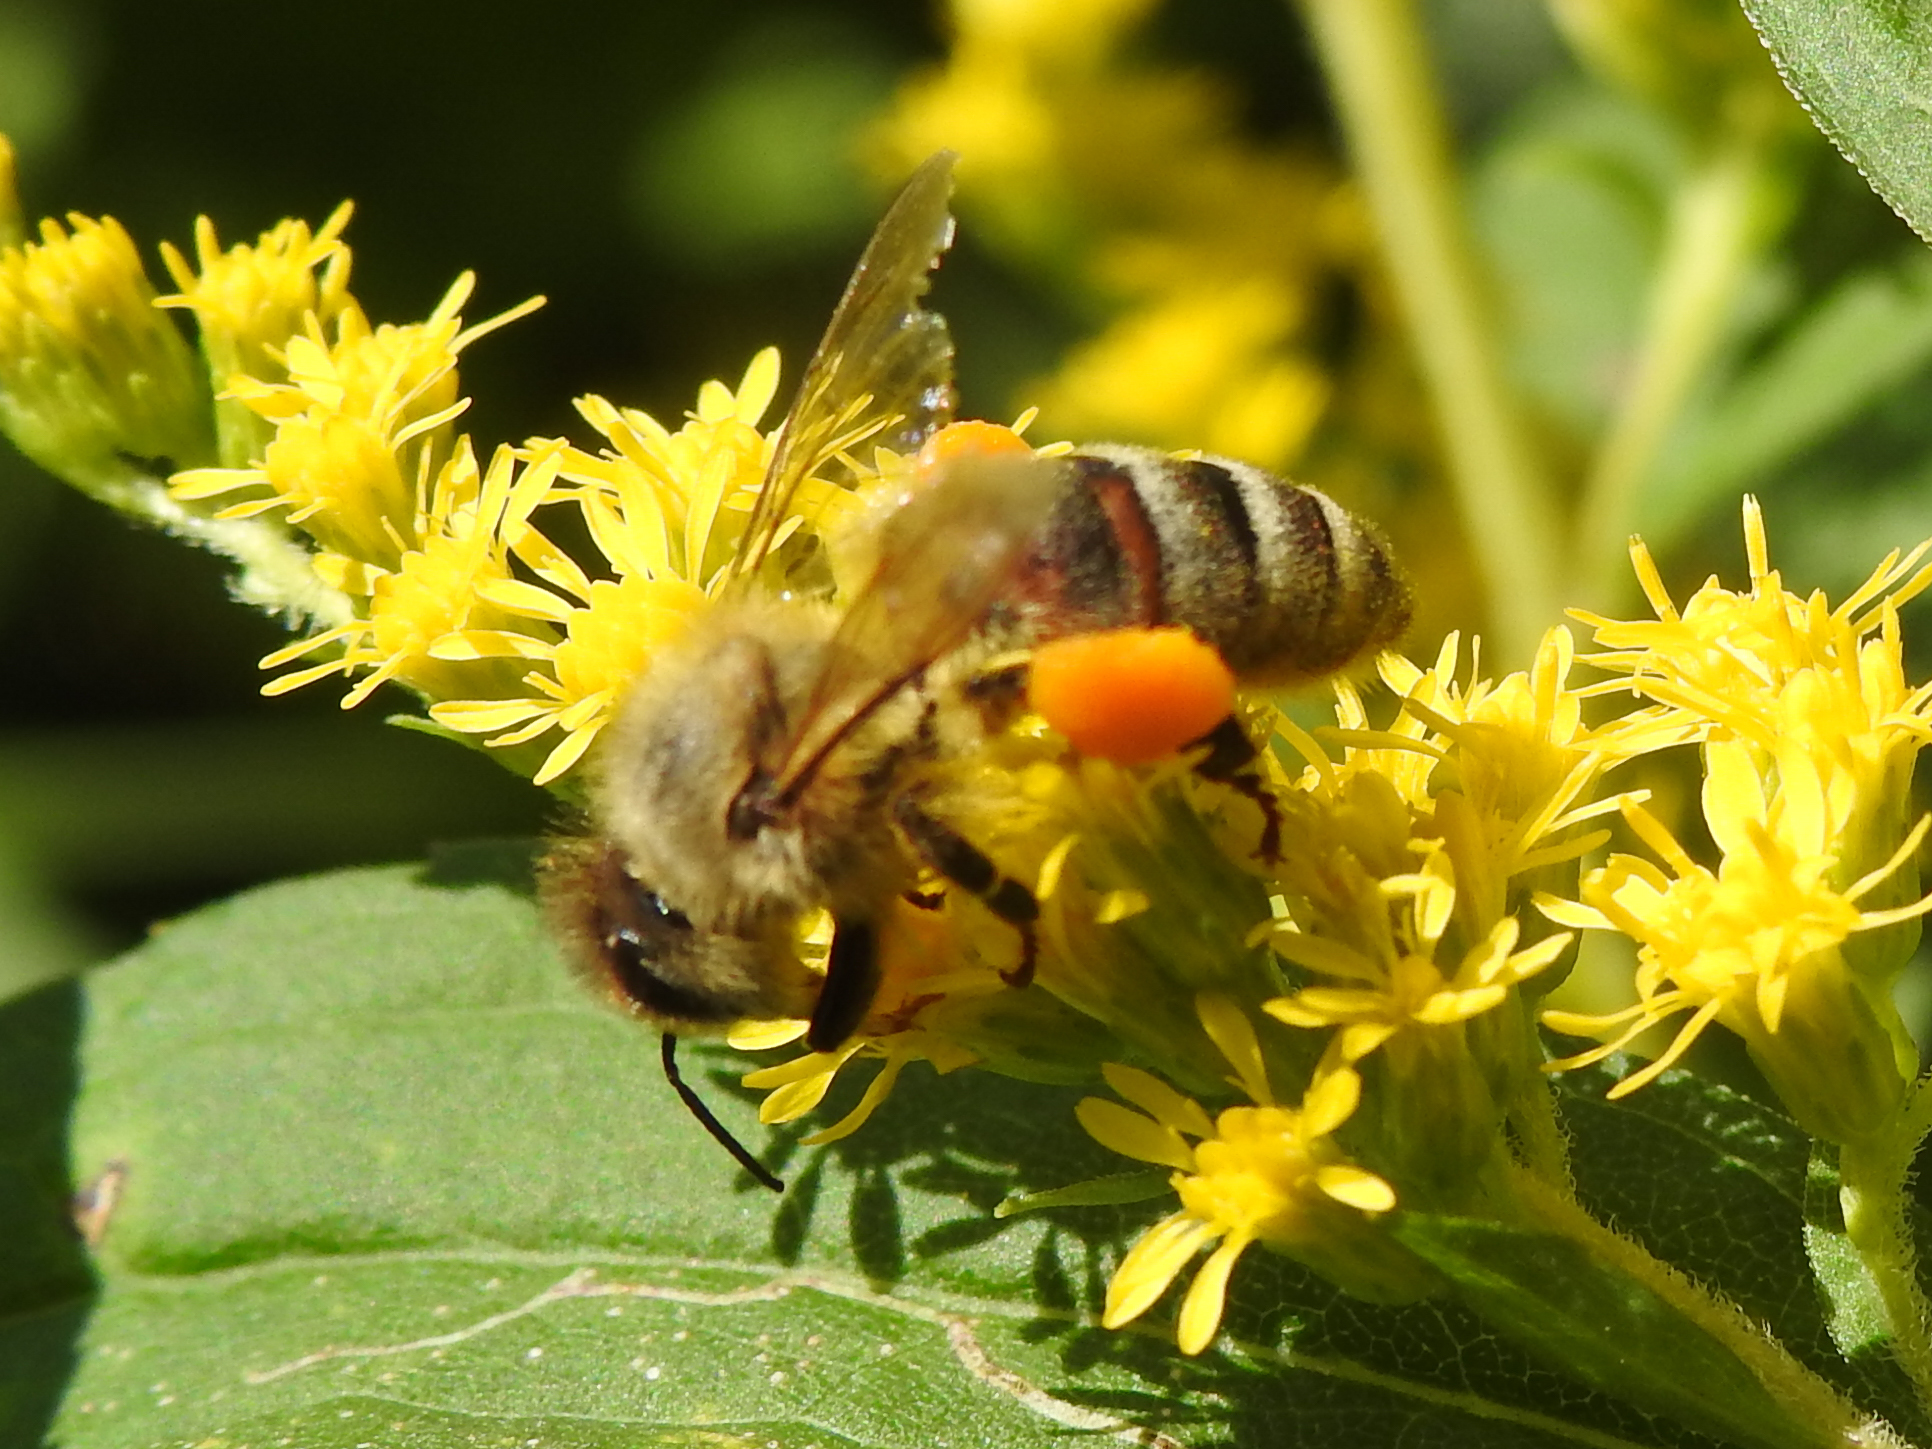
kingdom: Animalia
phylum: Arthropoda
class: Insecta
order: Hymenoptera
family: Apidae
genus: Apis
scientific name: Apis mellifera
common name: Honey bee
